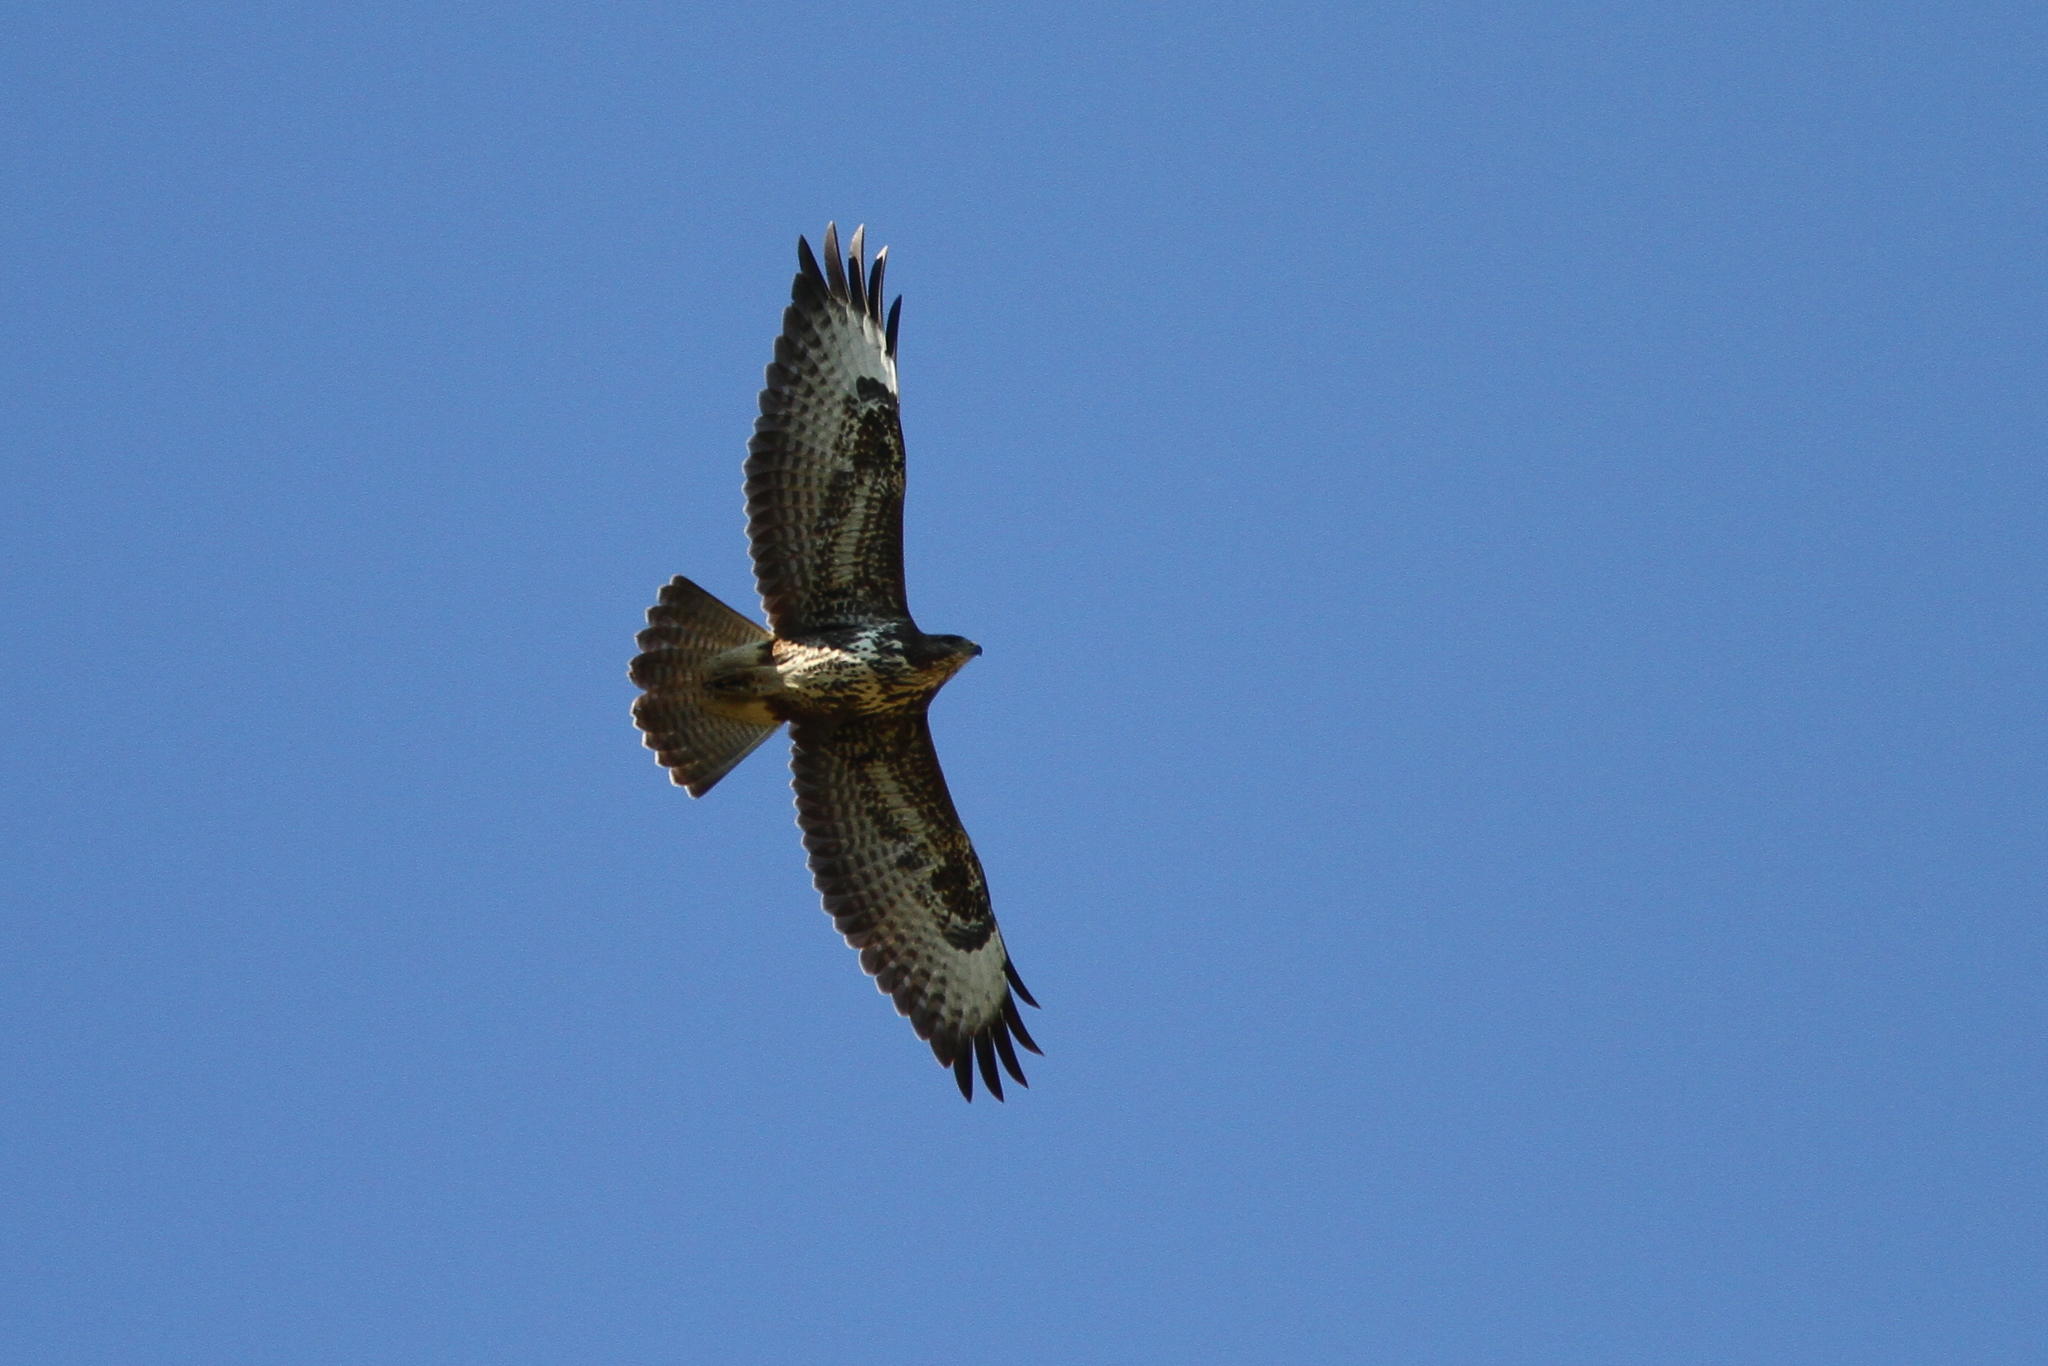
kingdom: Animalia
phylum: Chordata
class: Aves
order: Accipitriformes
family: Accipitridae
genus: Buteo
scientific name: Buteo buteo
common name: Common buzzard
